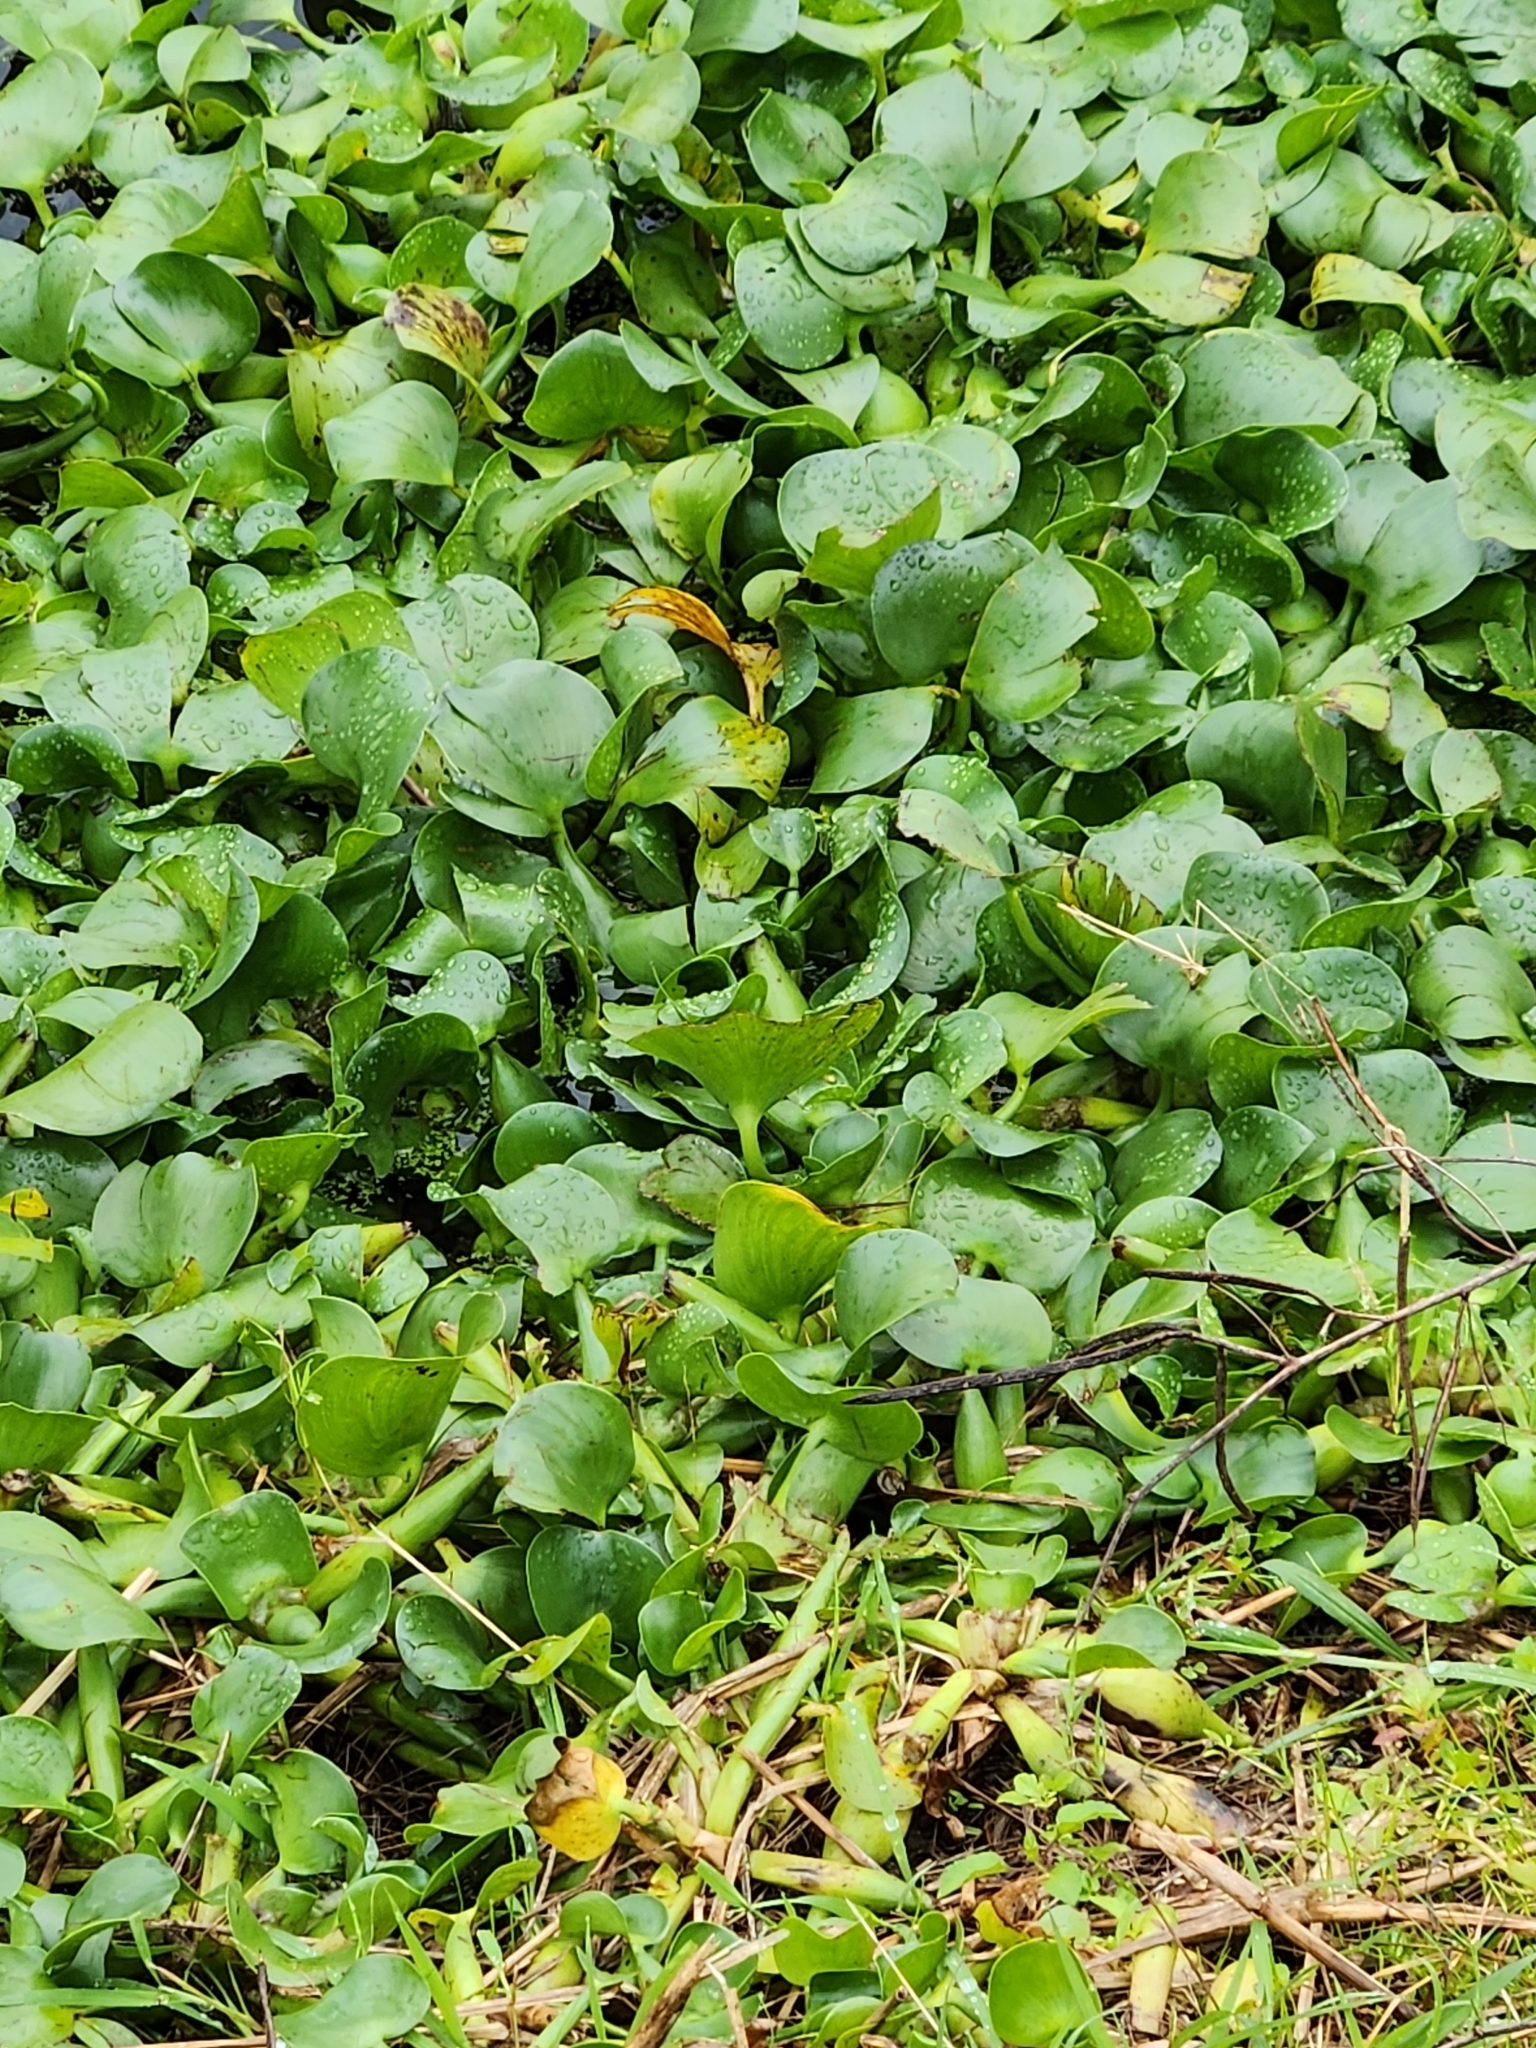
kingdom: Plantae
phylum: Tracheophyta
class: Liliopsida
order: Commelinales
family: Pontederiaceae
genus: Pontederia
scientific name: Pontederia crassipes
